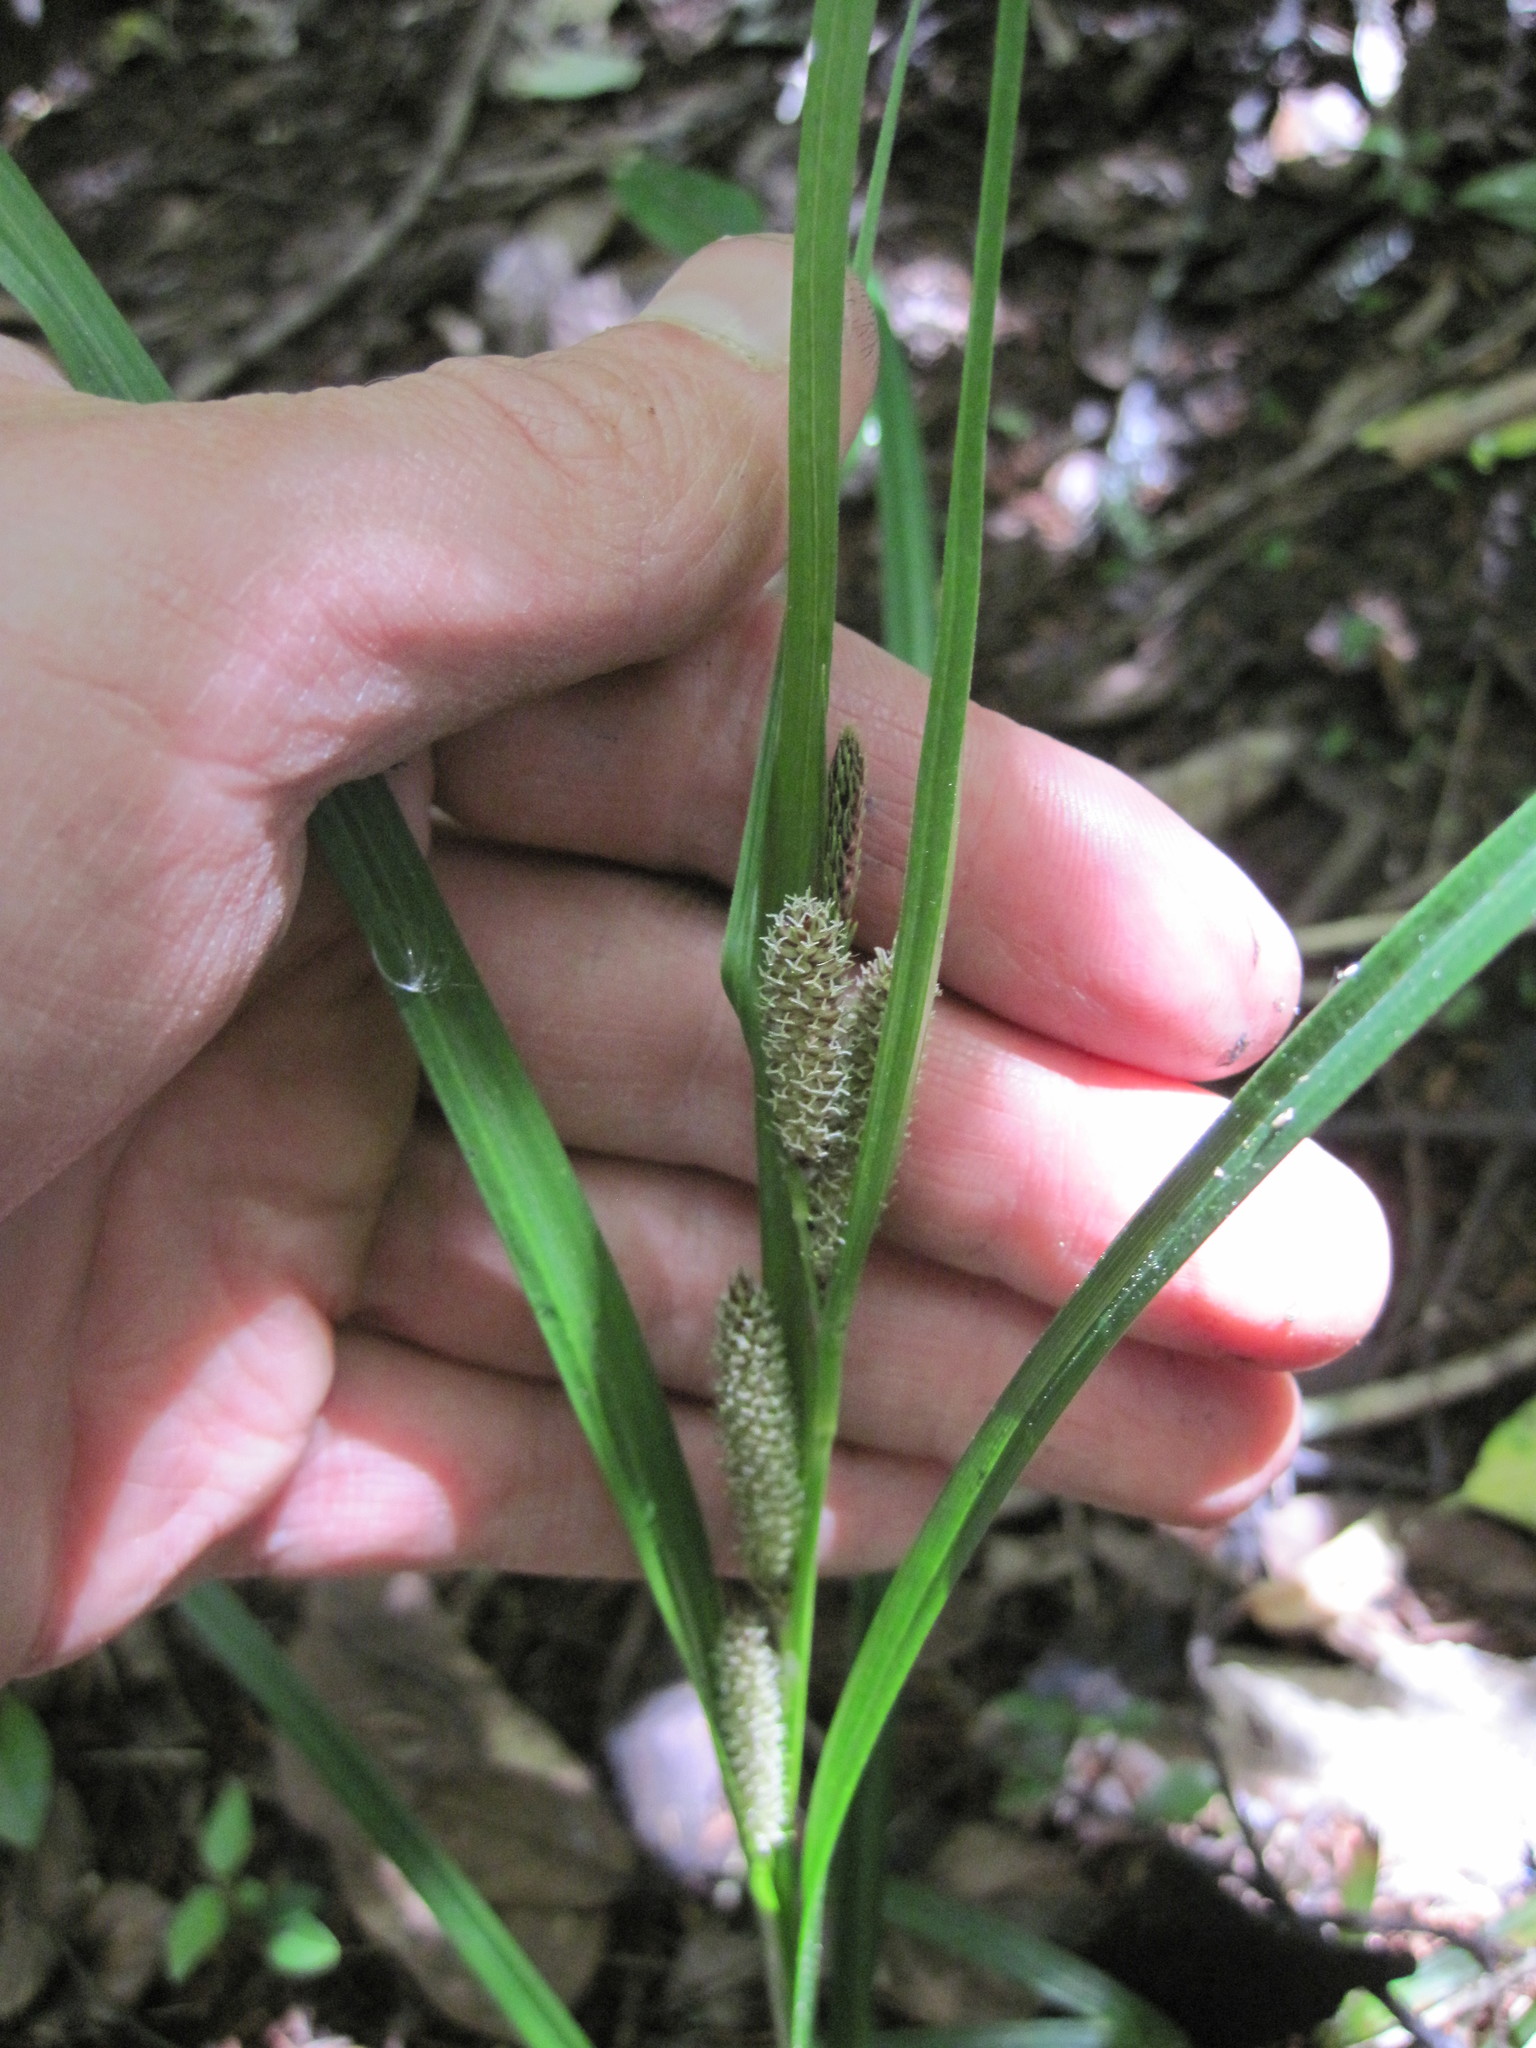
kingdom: Plantae
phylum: Tracheophyta
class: Liliopsida
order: Poales
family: Cyperaceae
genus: Carex
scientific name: Carex lambertiana
